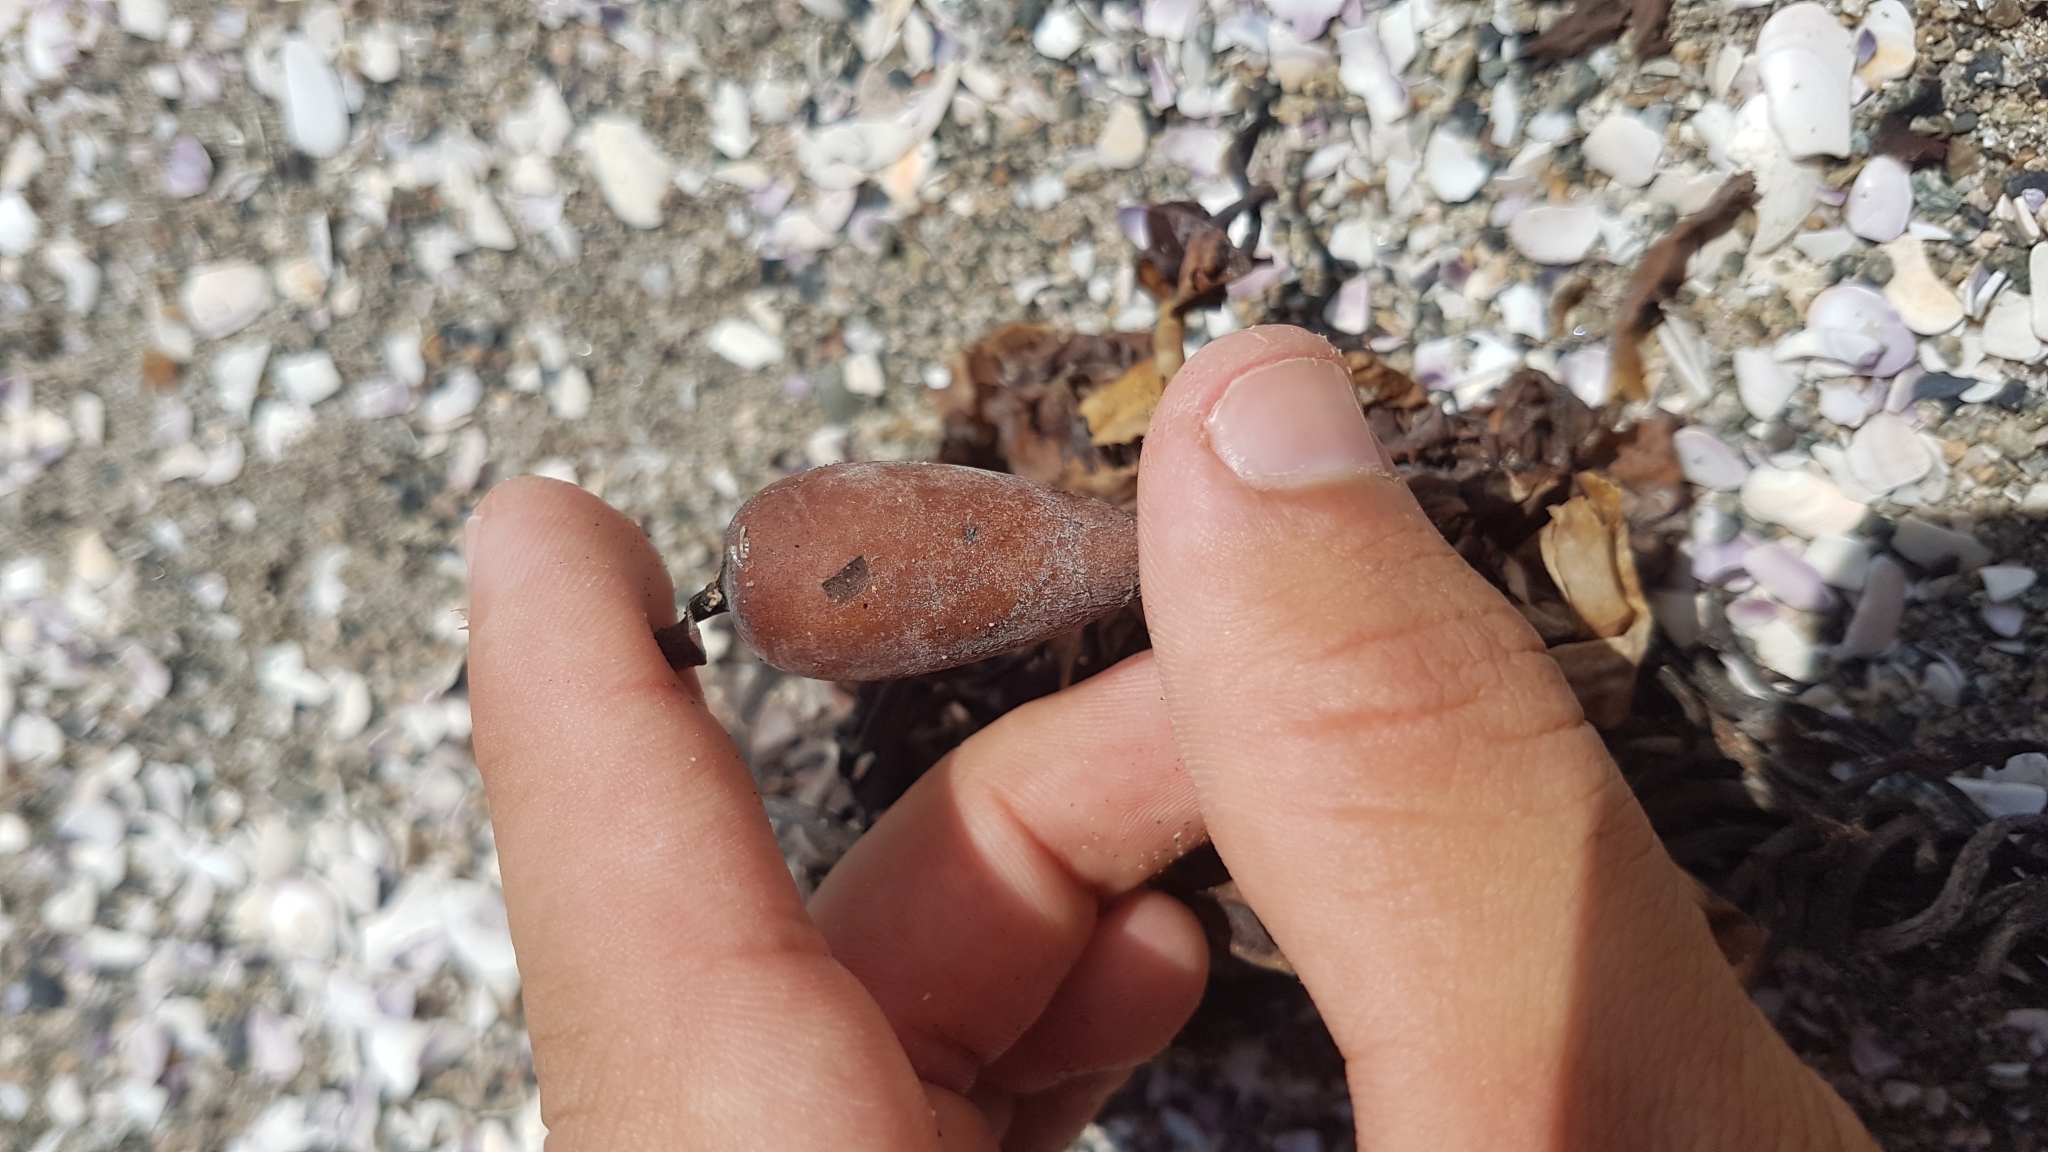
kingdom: Chromista
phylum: Ochrophyta
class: Phaeophyceae
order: Laminariales
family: Laminariaceae
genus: Macrocystis
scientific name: Macrocystis pyrifera
